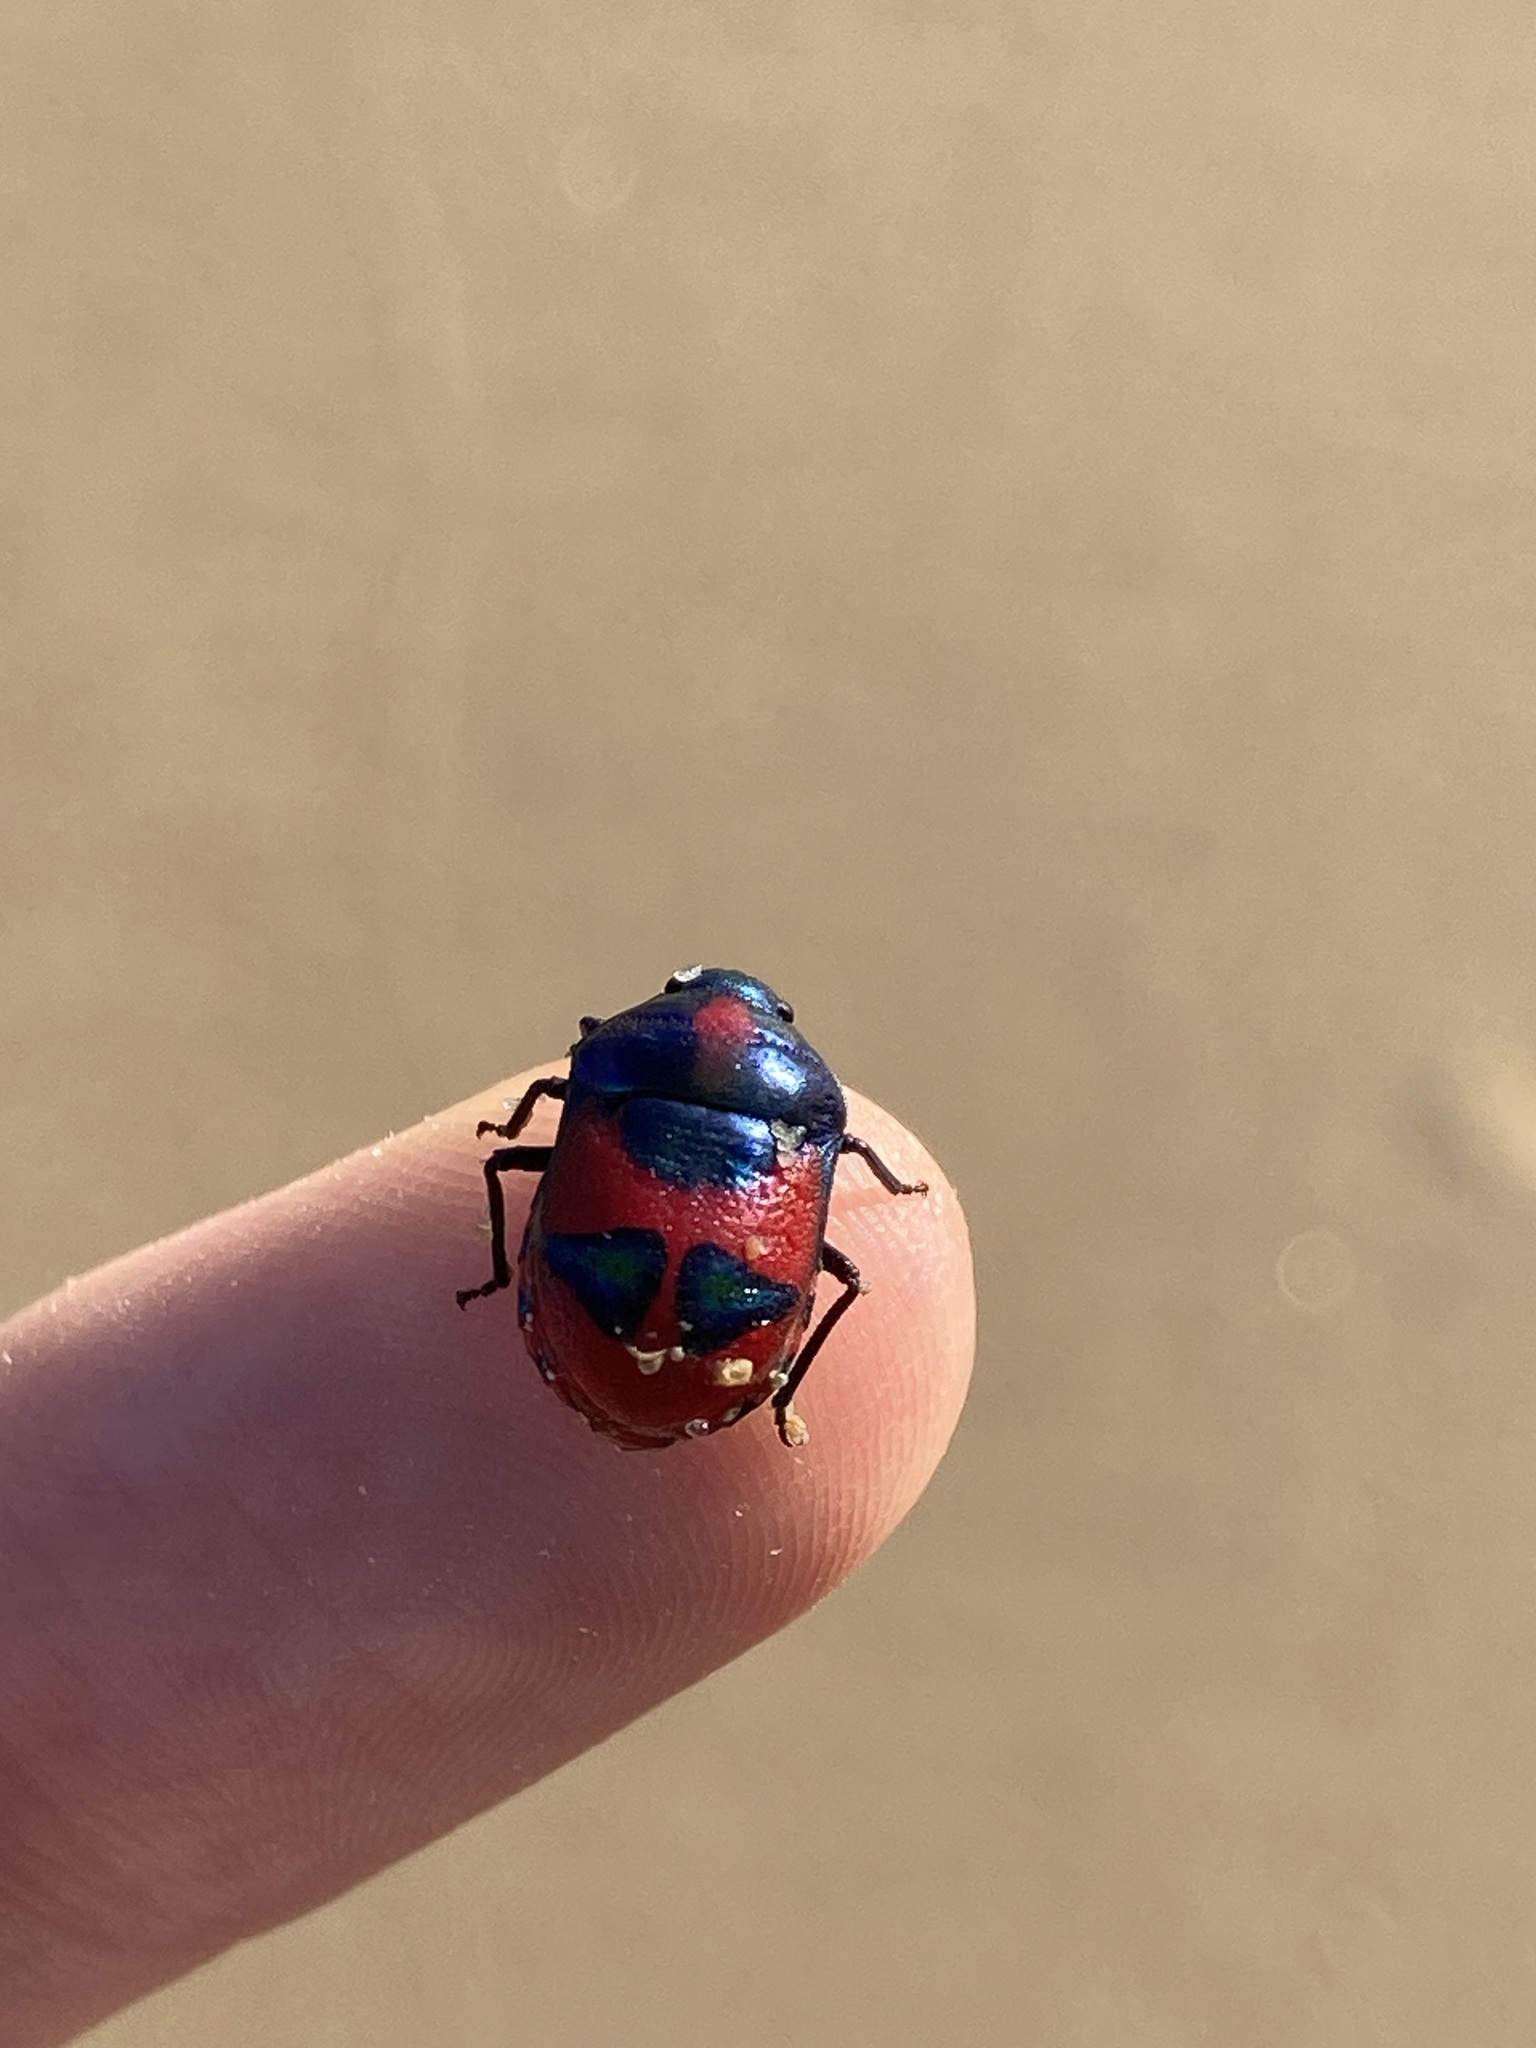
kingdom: Animalia
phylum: Arthropoda
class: Insecta
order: Hemiptera
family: Scutelleridae
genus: Choerocoris
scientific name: Choerocoris paganus
